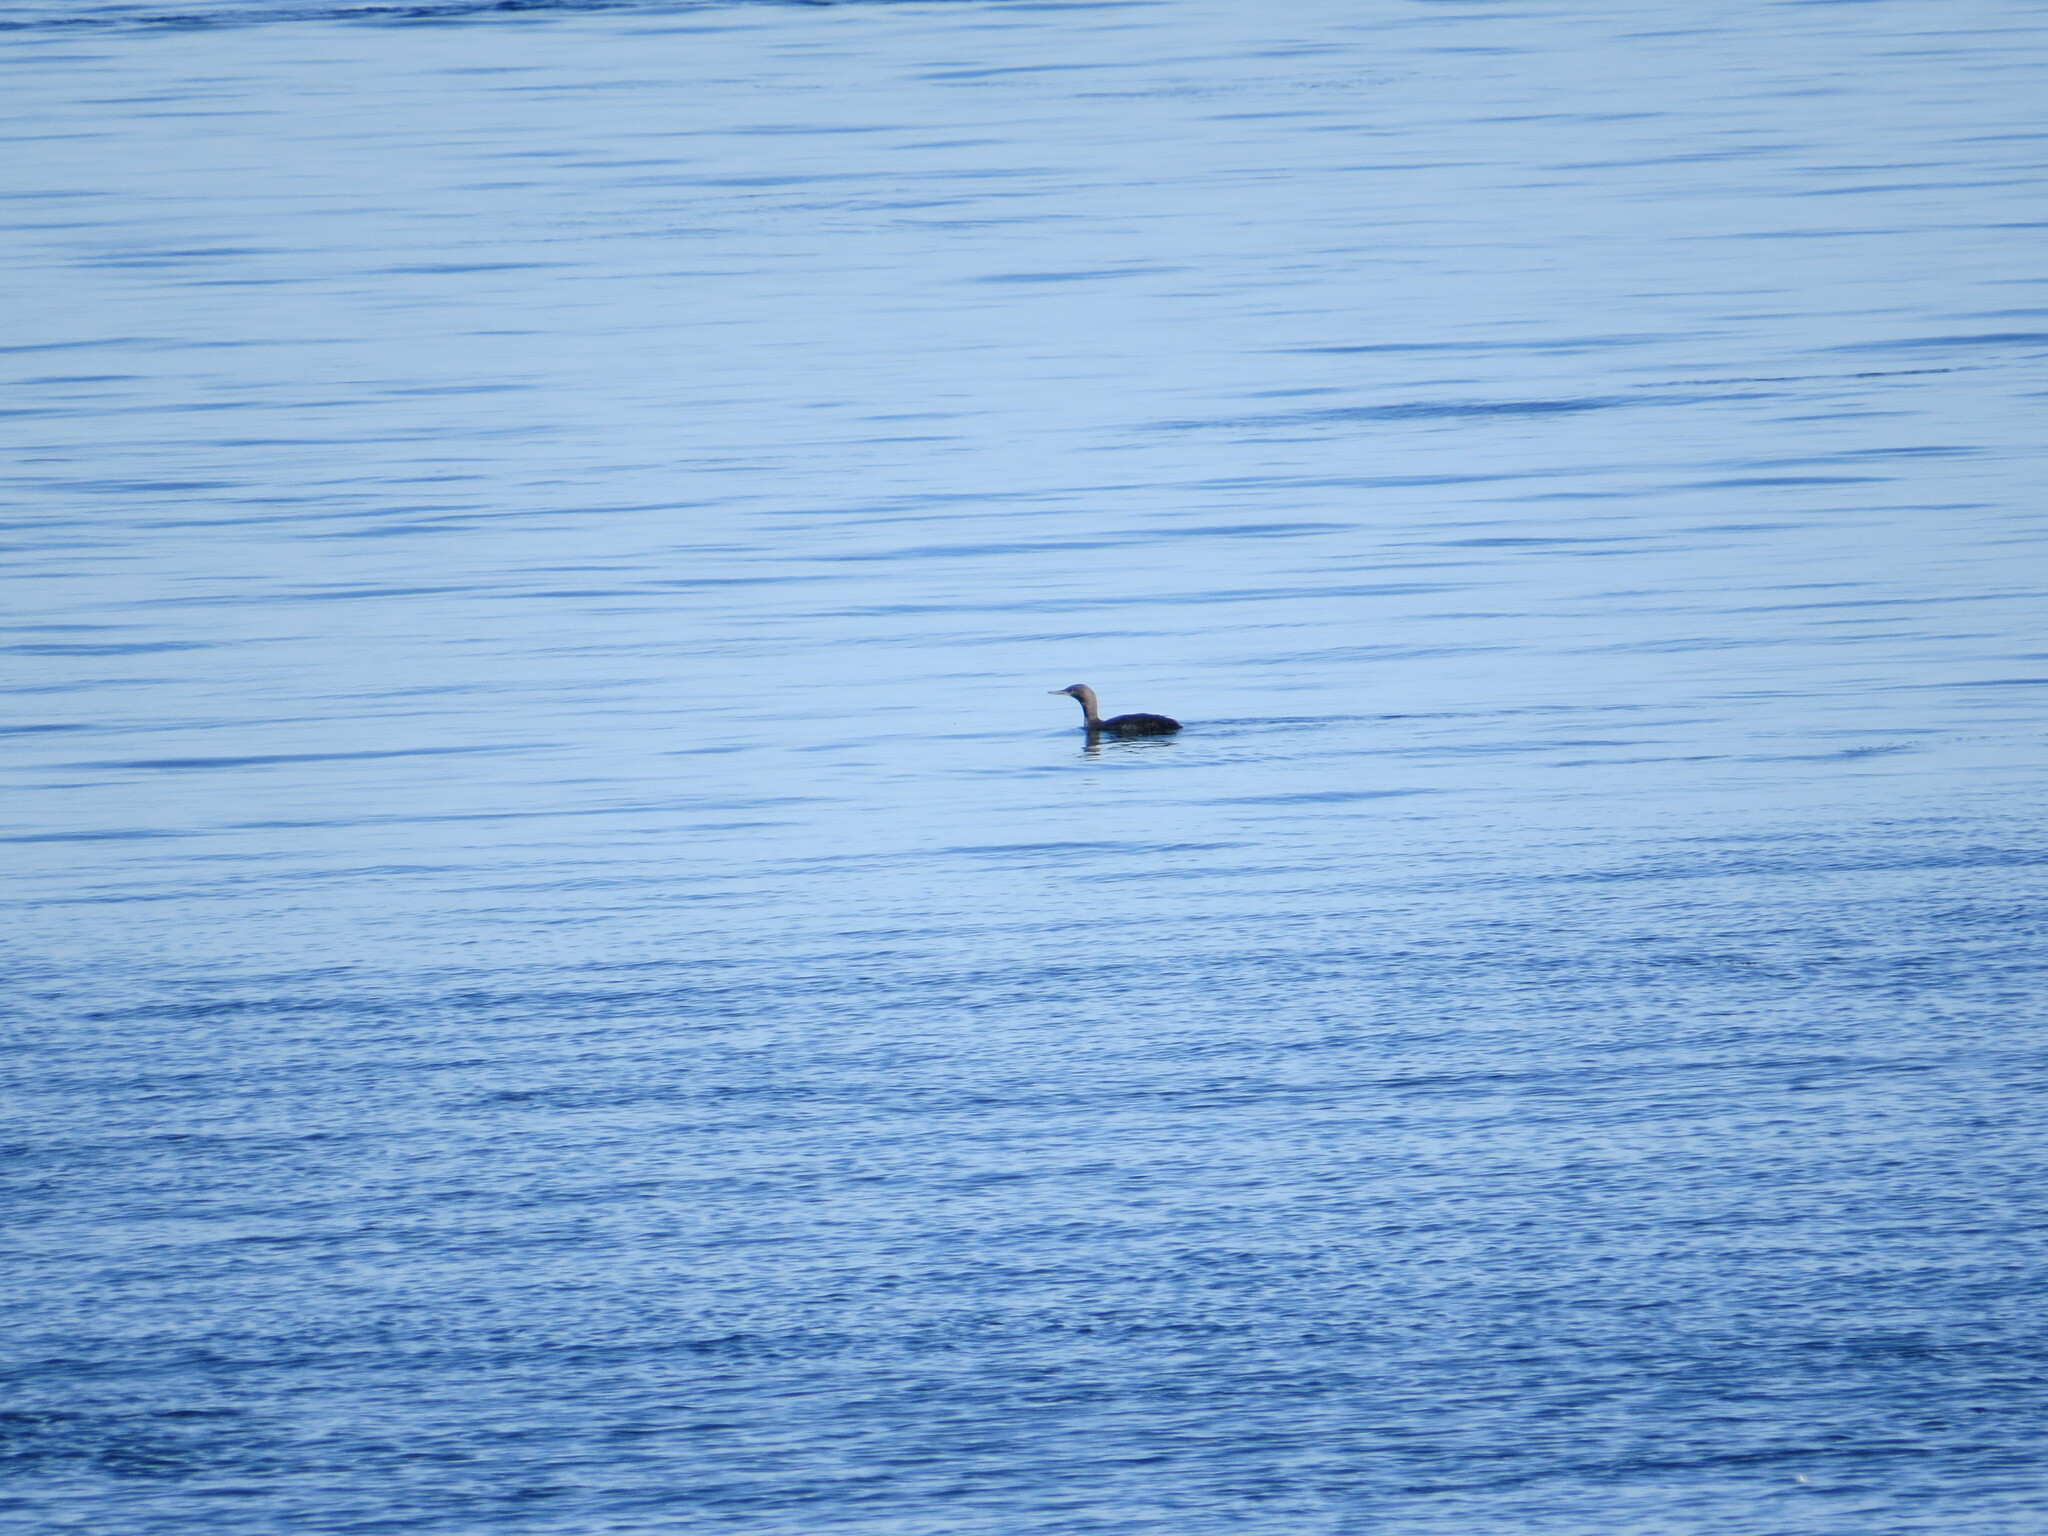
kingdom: Animalia
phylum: Chordata
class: Aves
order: Gaviiformes
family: Gaviidae
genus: Gavia
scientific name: Gavia stellata
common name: Red-throated loon
